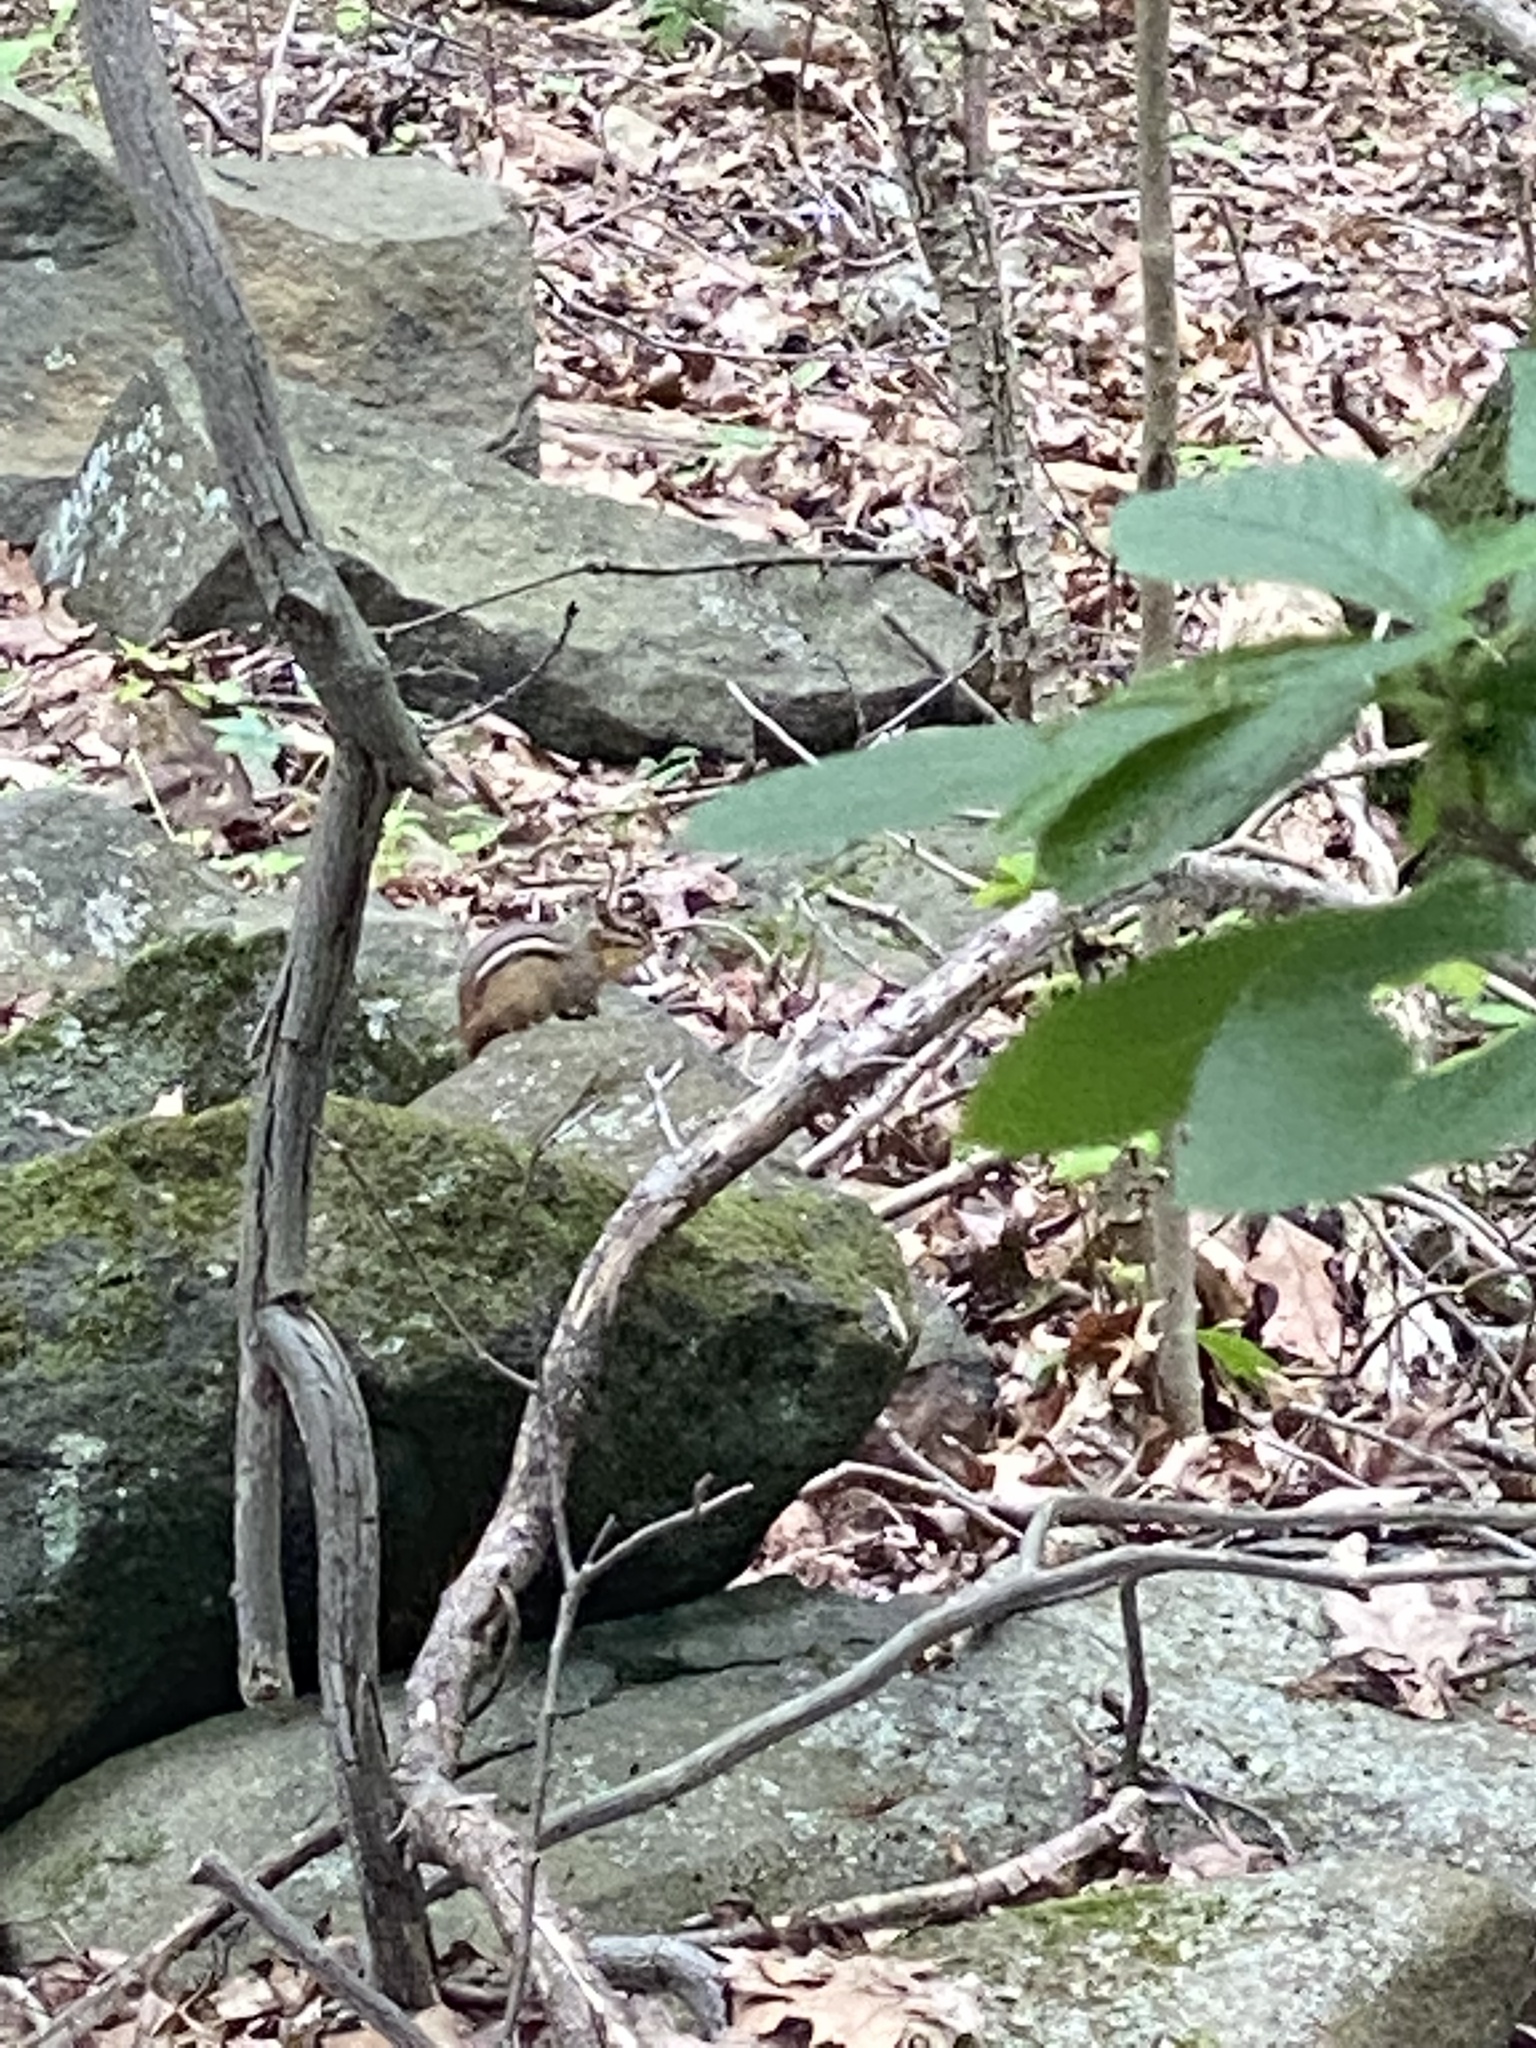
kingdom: Animalia
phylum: Chordata
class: Mammalia
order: Rodentia
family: Sciuridae
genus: Tamias
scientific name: Tamias striatus
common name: Eastern chipmunk
